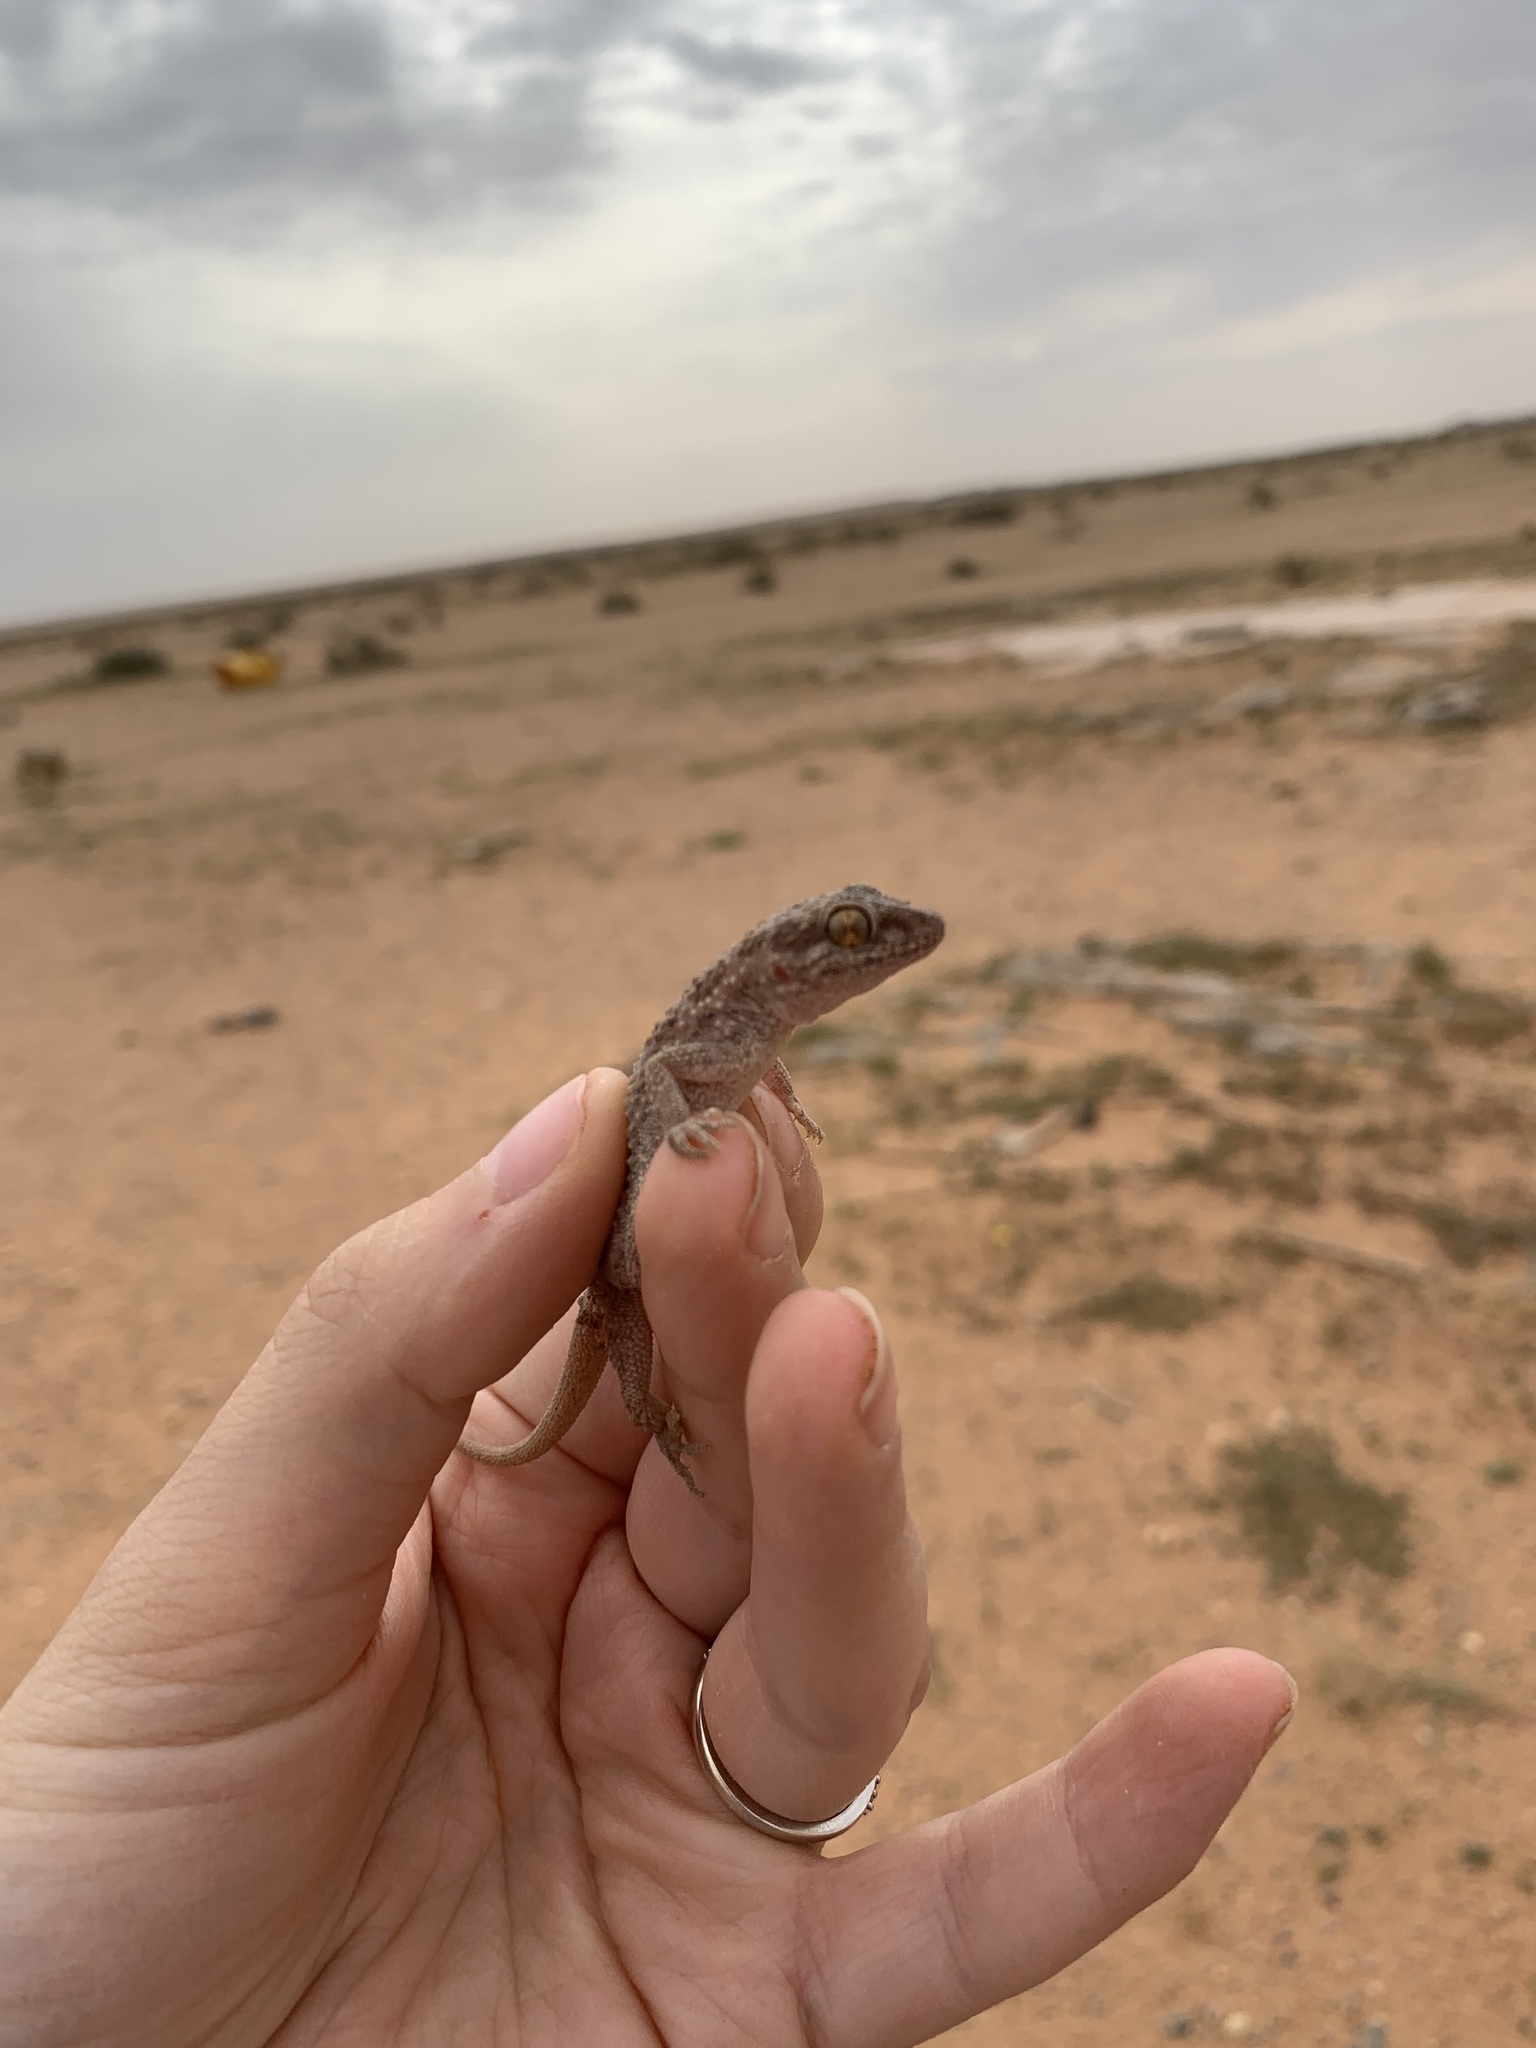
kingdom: Animalia
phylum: Chordata
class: Squamata
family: Gekkonidae
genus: Bunopus
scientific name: Bunopus tuberculatus
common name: Southern tuberculated gecko
